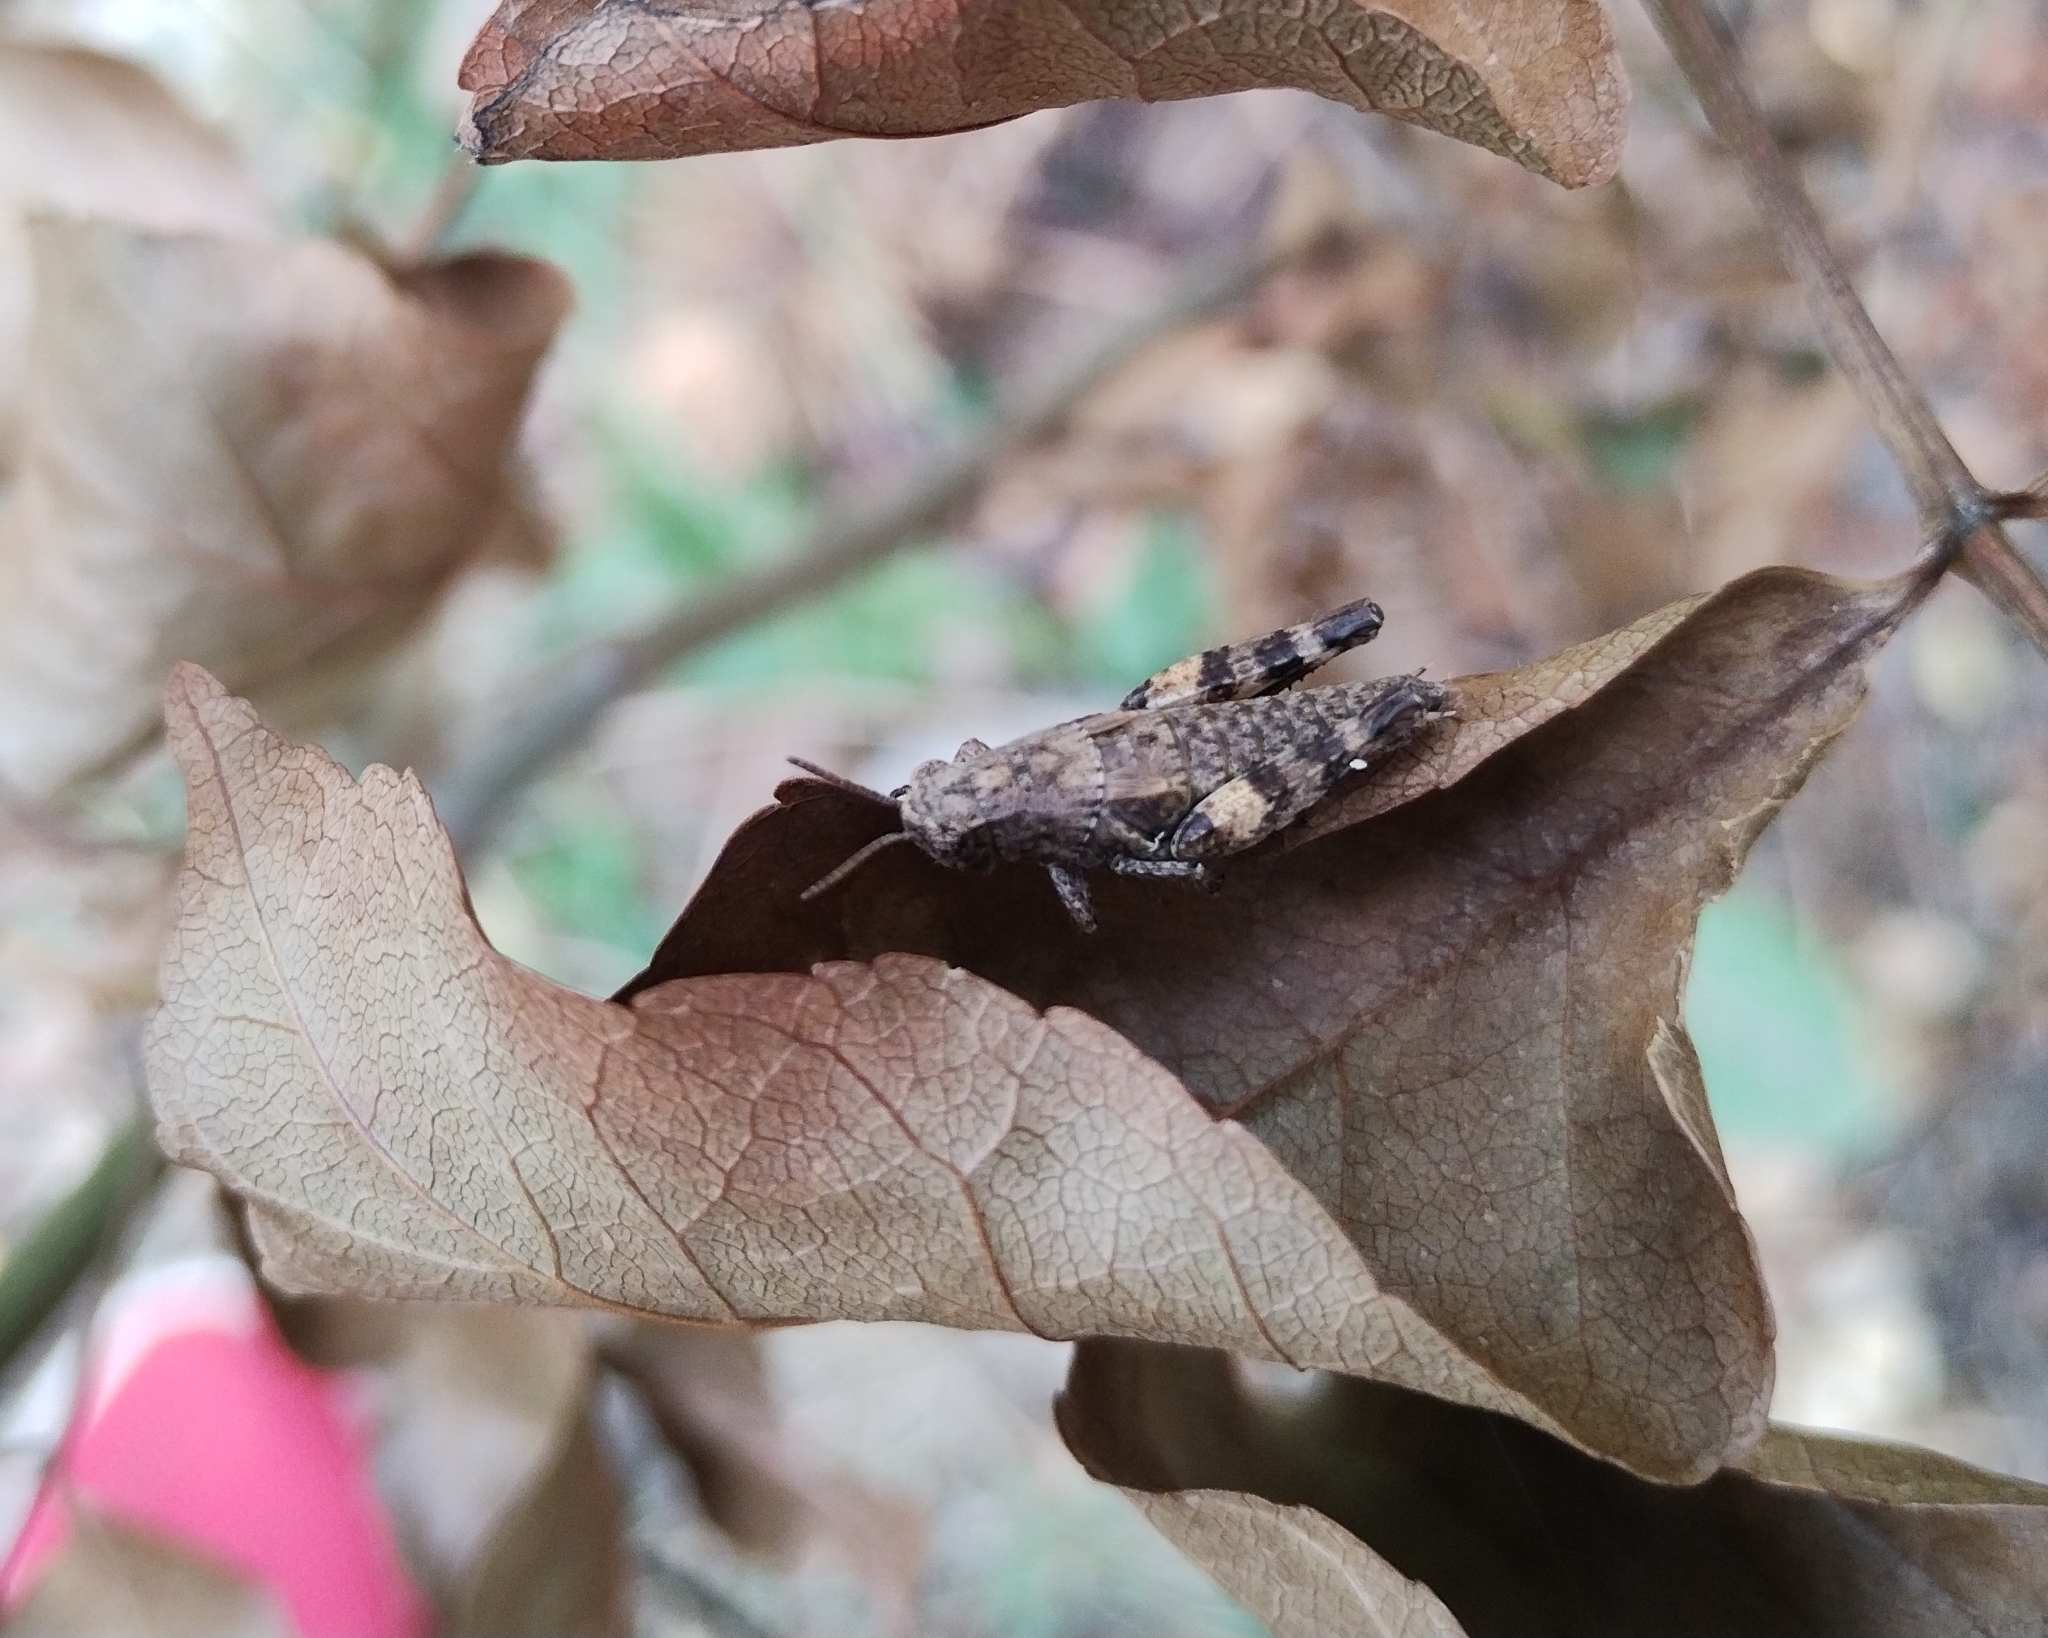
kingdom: Animalia
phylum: Arthropoda
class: Insecta
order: Orthoptera
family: Acrididae
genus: Pezotettix
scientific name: Pezotettix giornae
